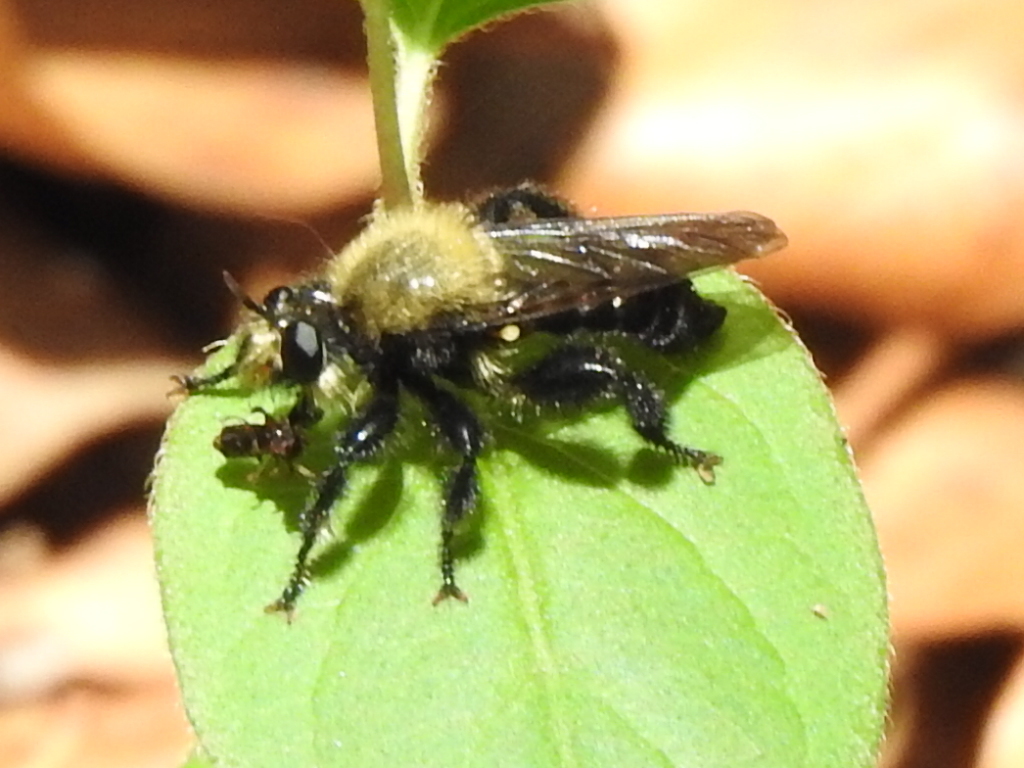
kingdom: Animalia
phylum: Arthropoda
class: Insecta
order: Diptera
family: Asilidae
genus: Laphria
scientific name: Laphria flavicollis
